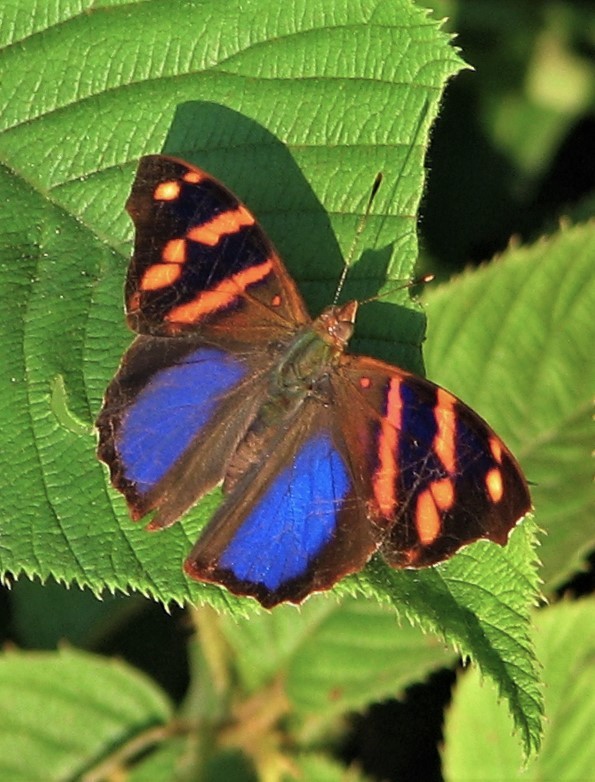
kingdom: Animalia
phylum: Arthropoda
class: Insecta
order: Lepidoptera
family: Nymphalidae
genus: Epiphile
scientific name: Epiphile orea
